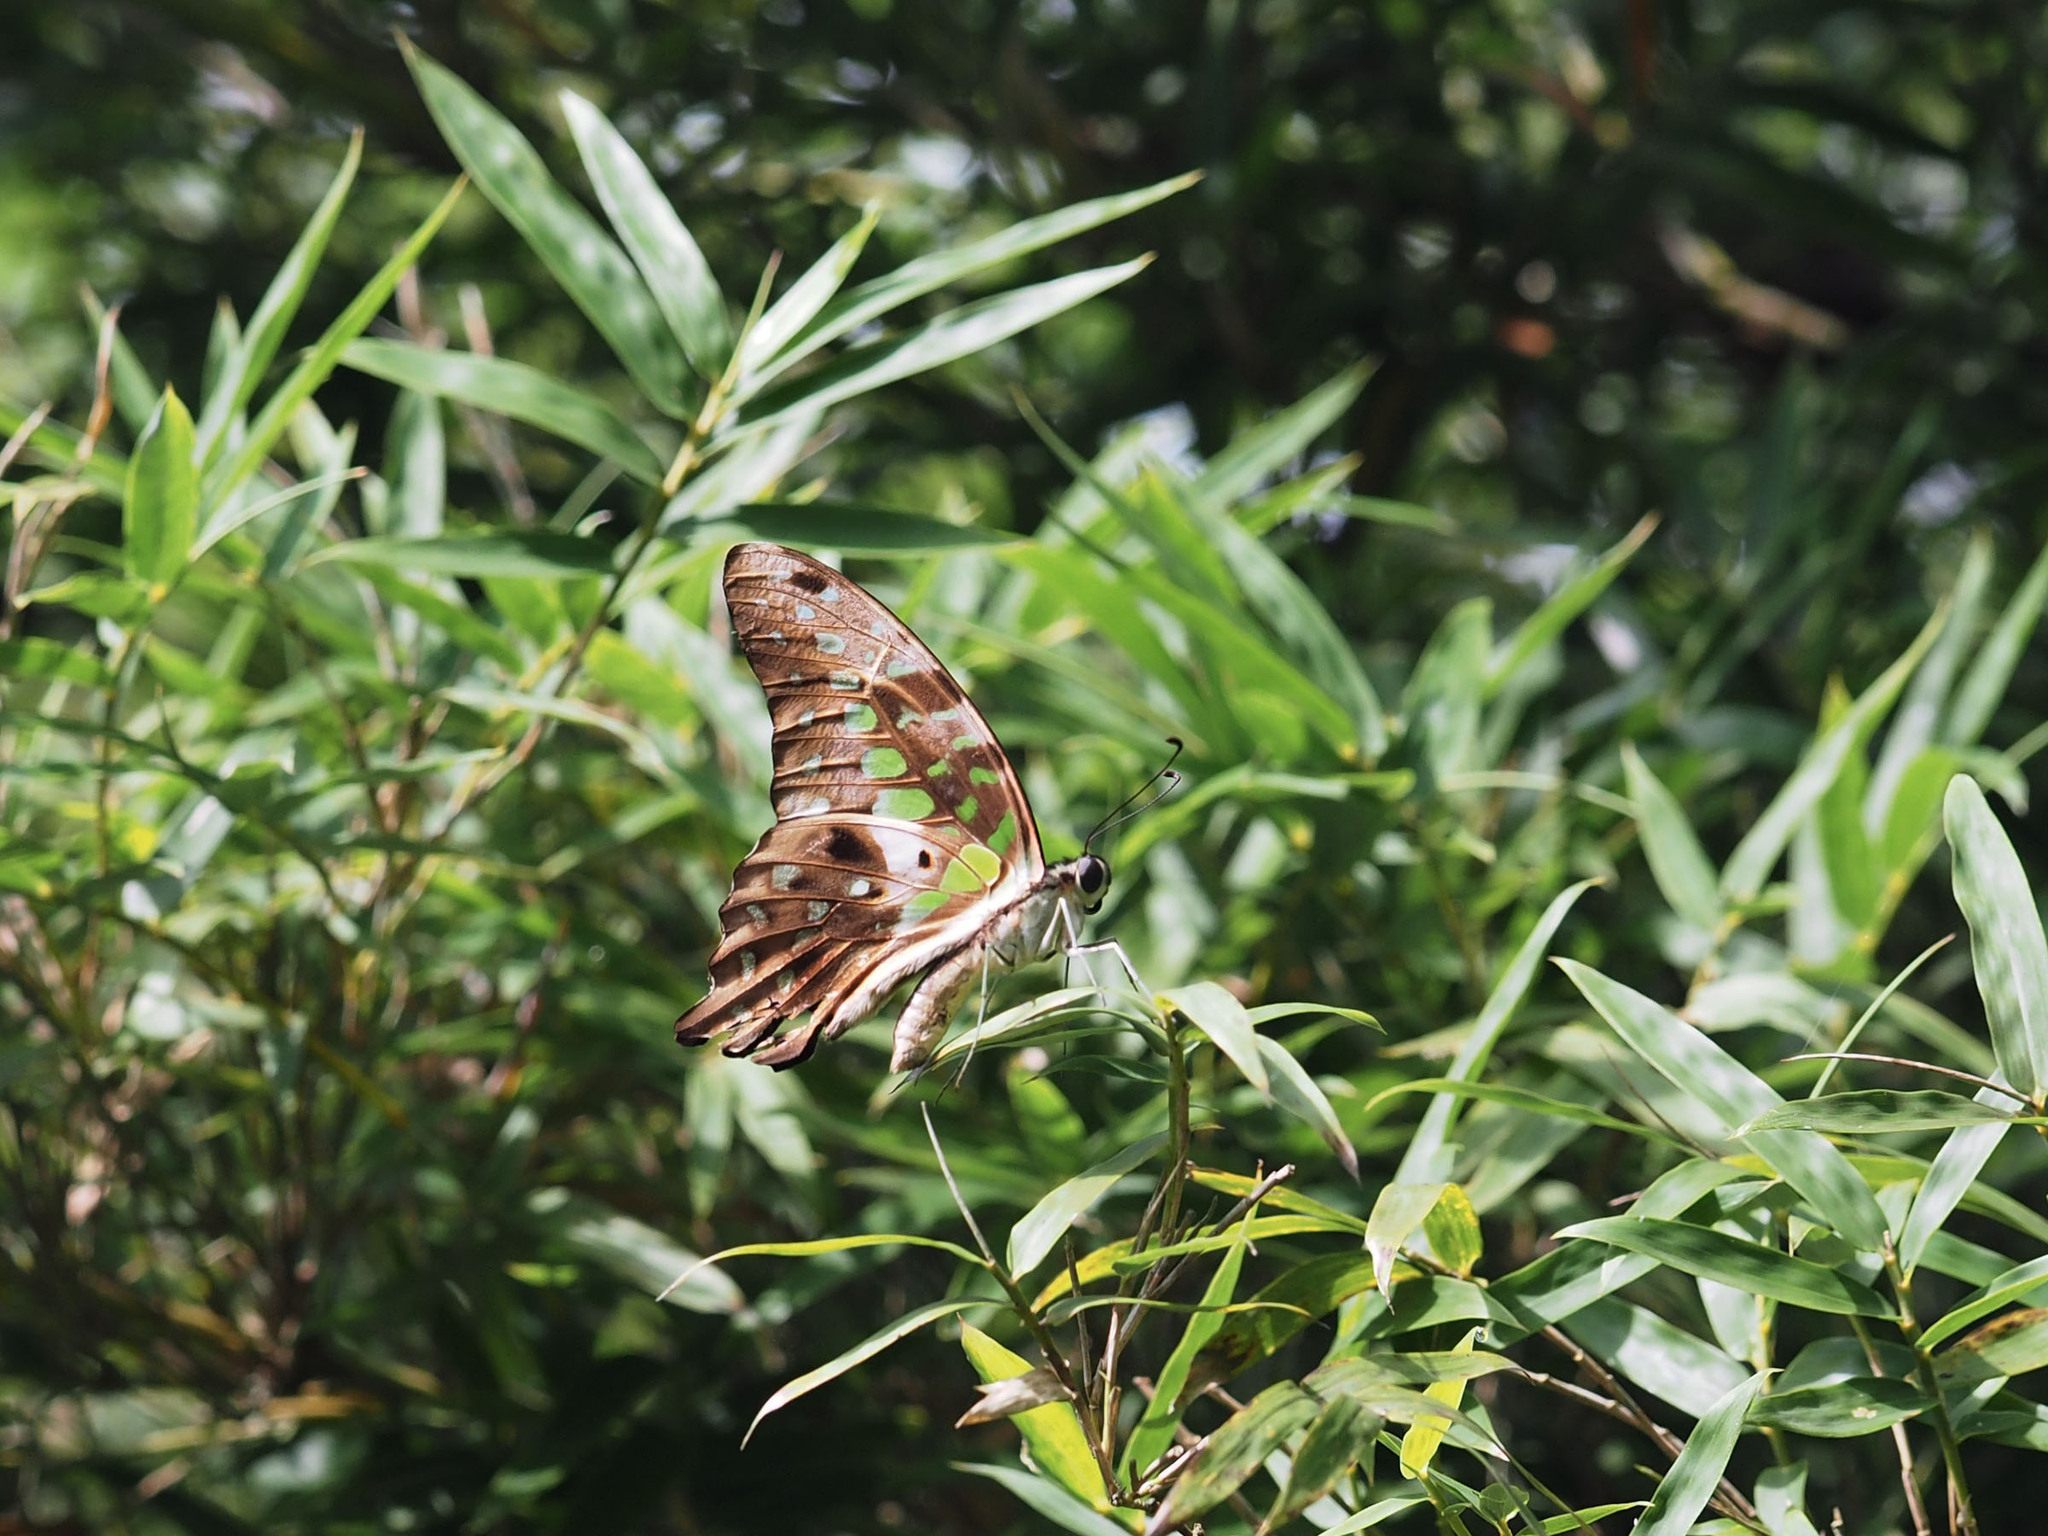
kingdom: Animalia
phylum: Arthropoda
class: Insecta
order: Lepidoptera
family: Papilionidae
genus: Graphium
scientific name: Graphium agamemnon
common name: Tailed jay
